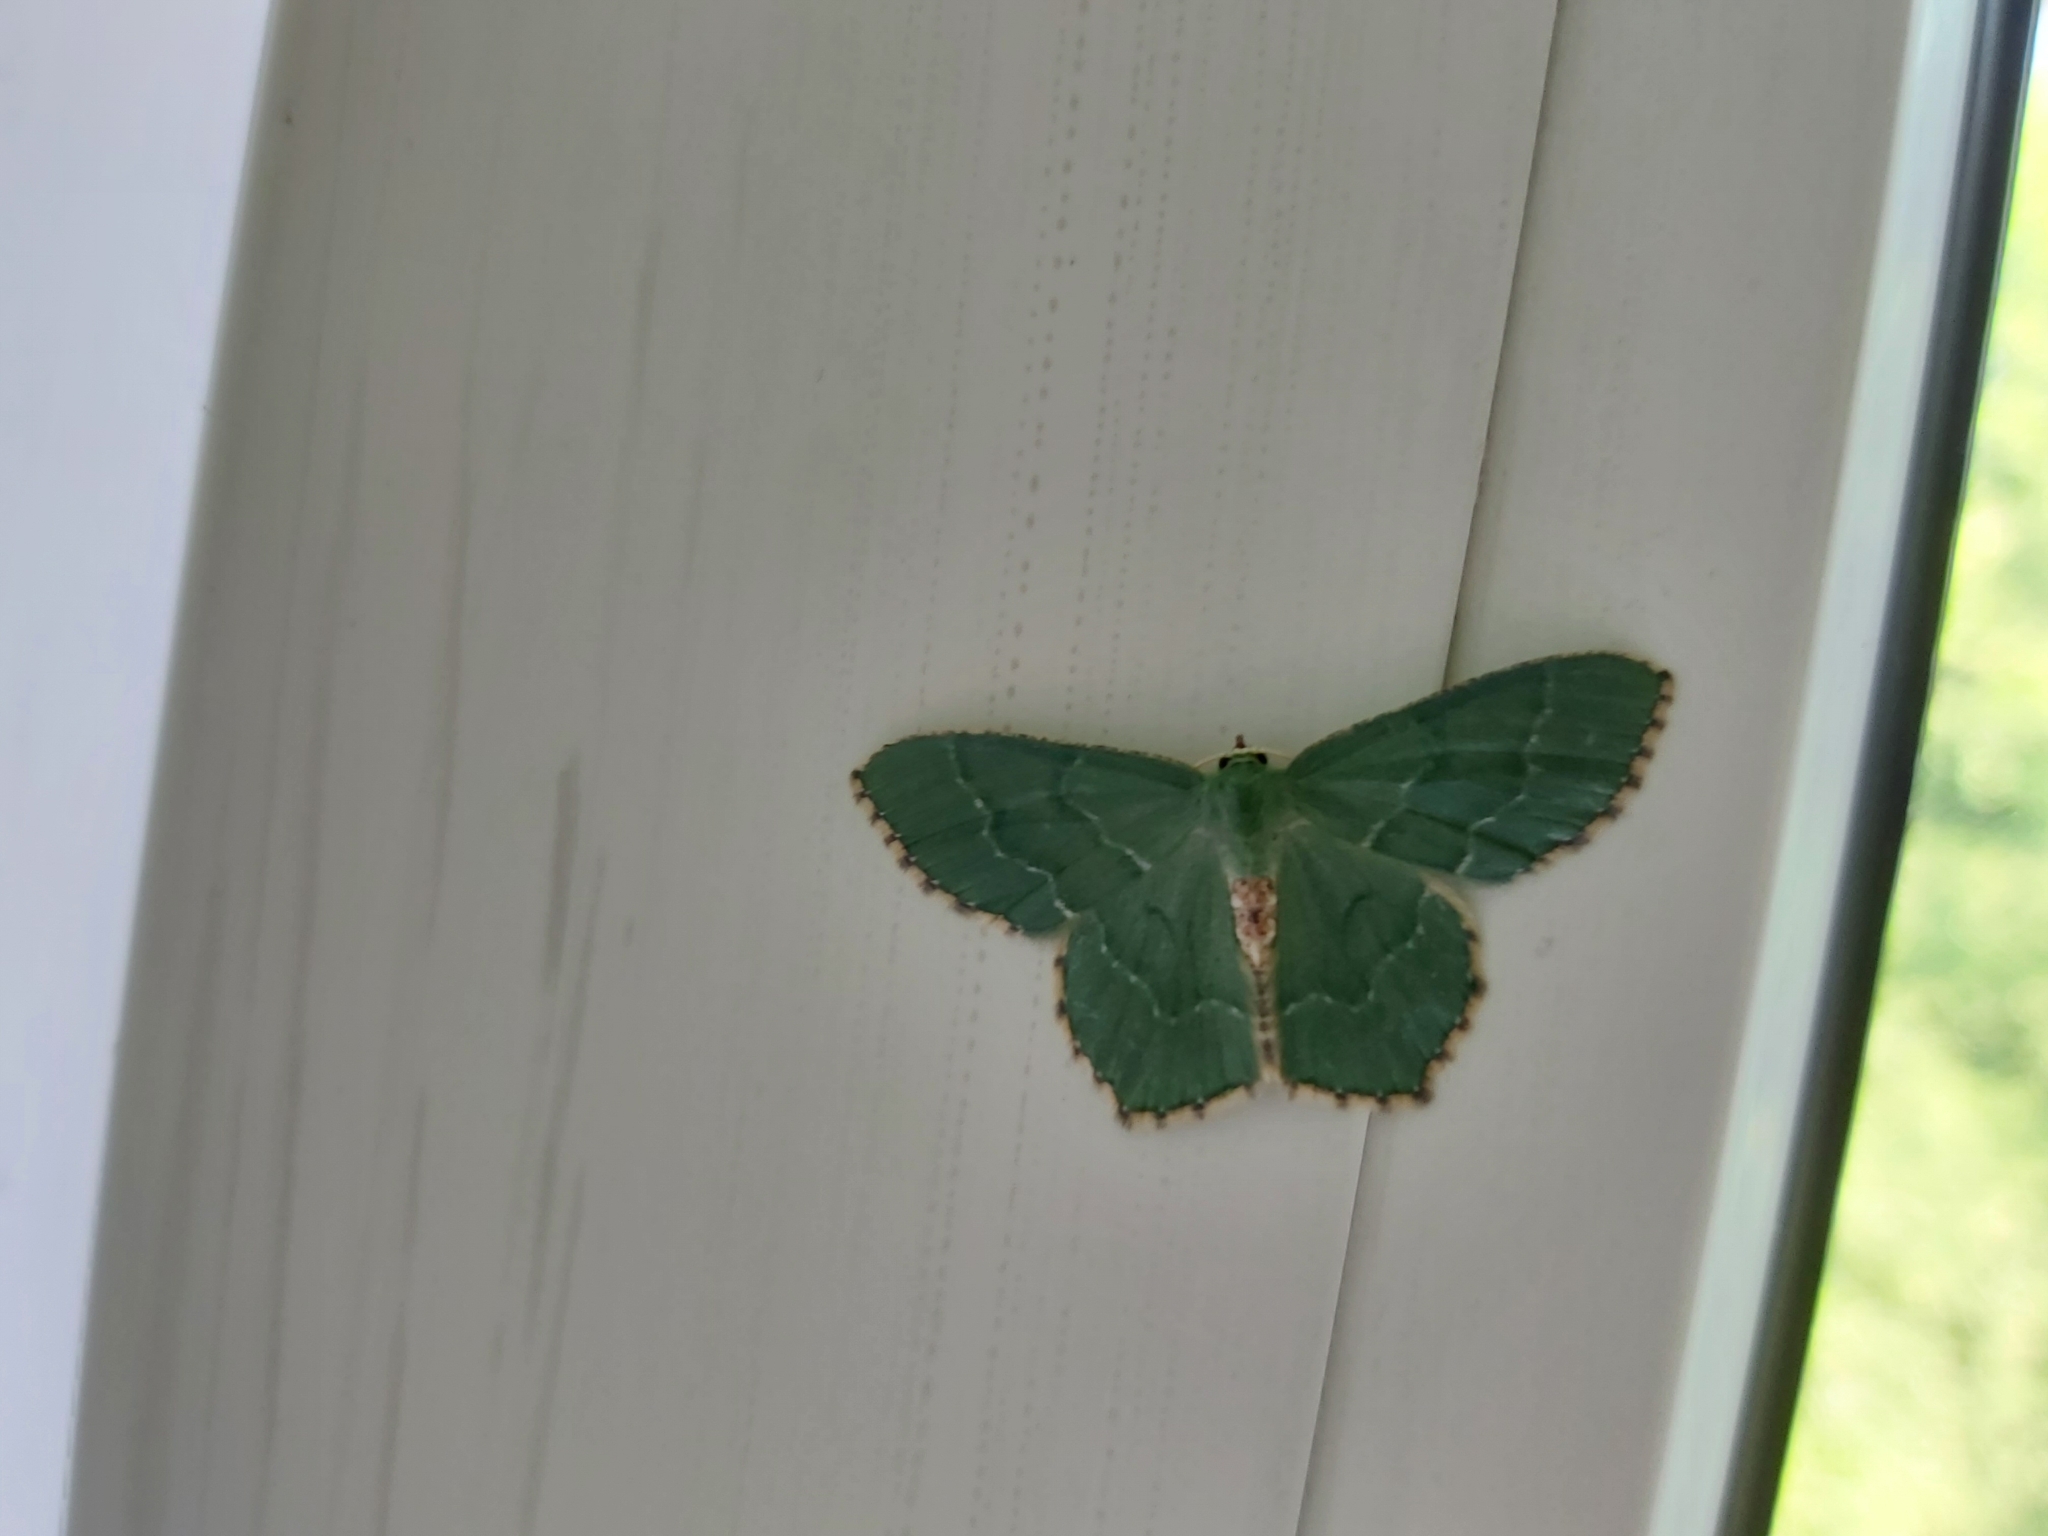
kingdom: Animalia
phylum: Arthropoda
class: Insecta
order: Lepidoptera
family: Geometridae
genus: Hemithea
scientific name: Hemithea aestivaria
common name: Common emerald
